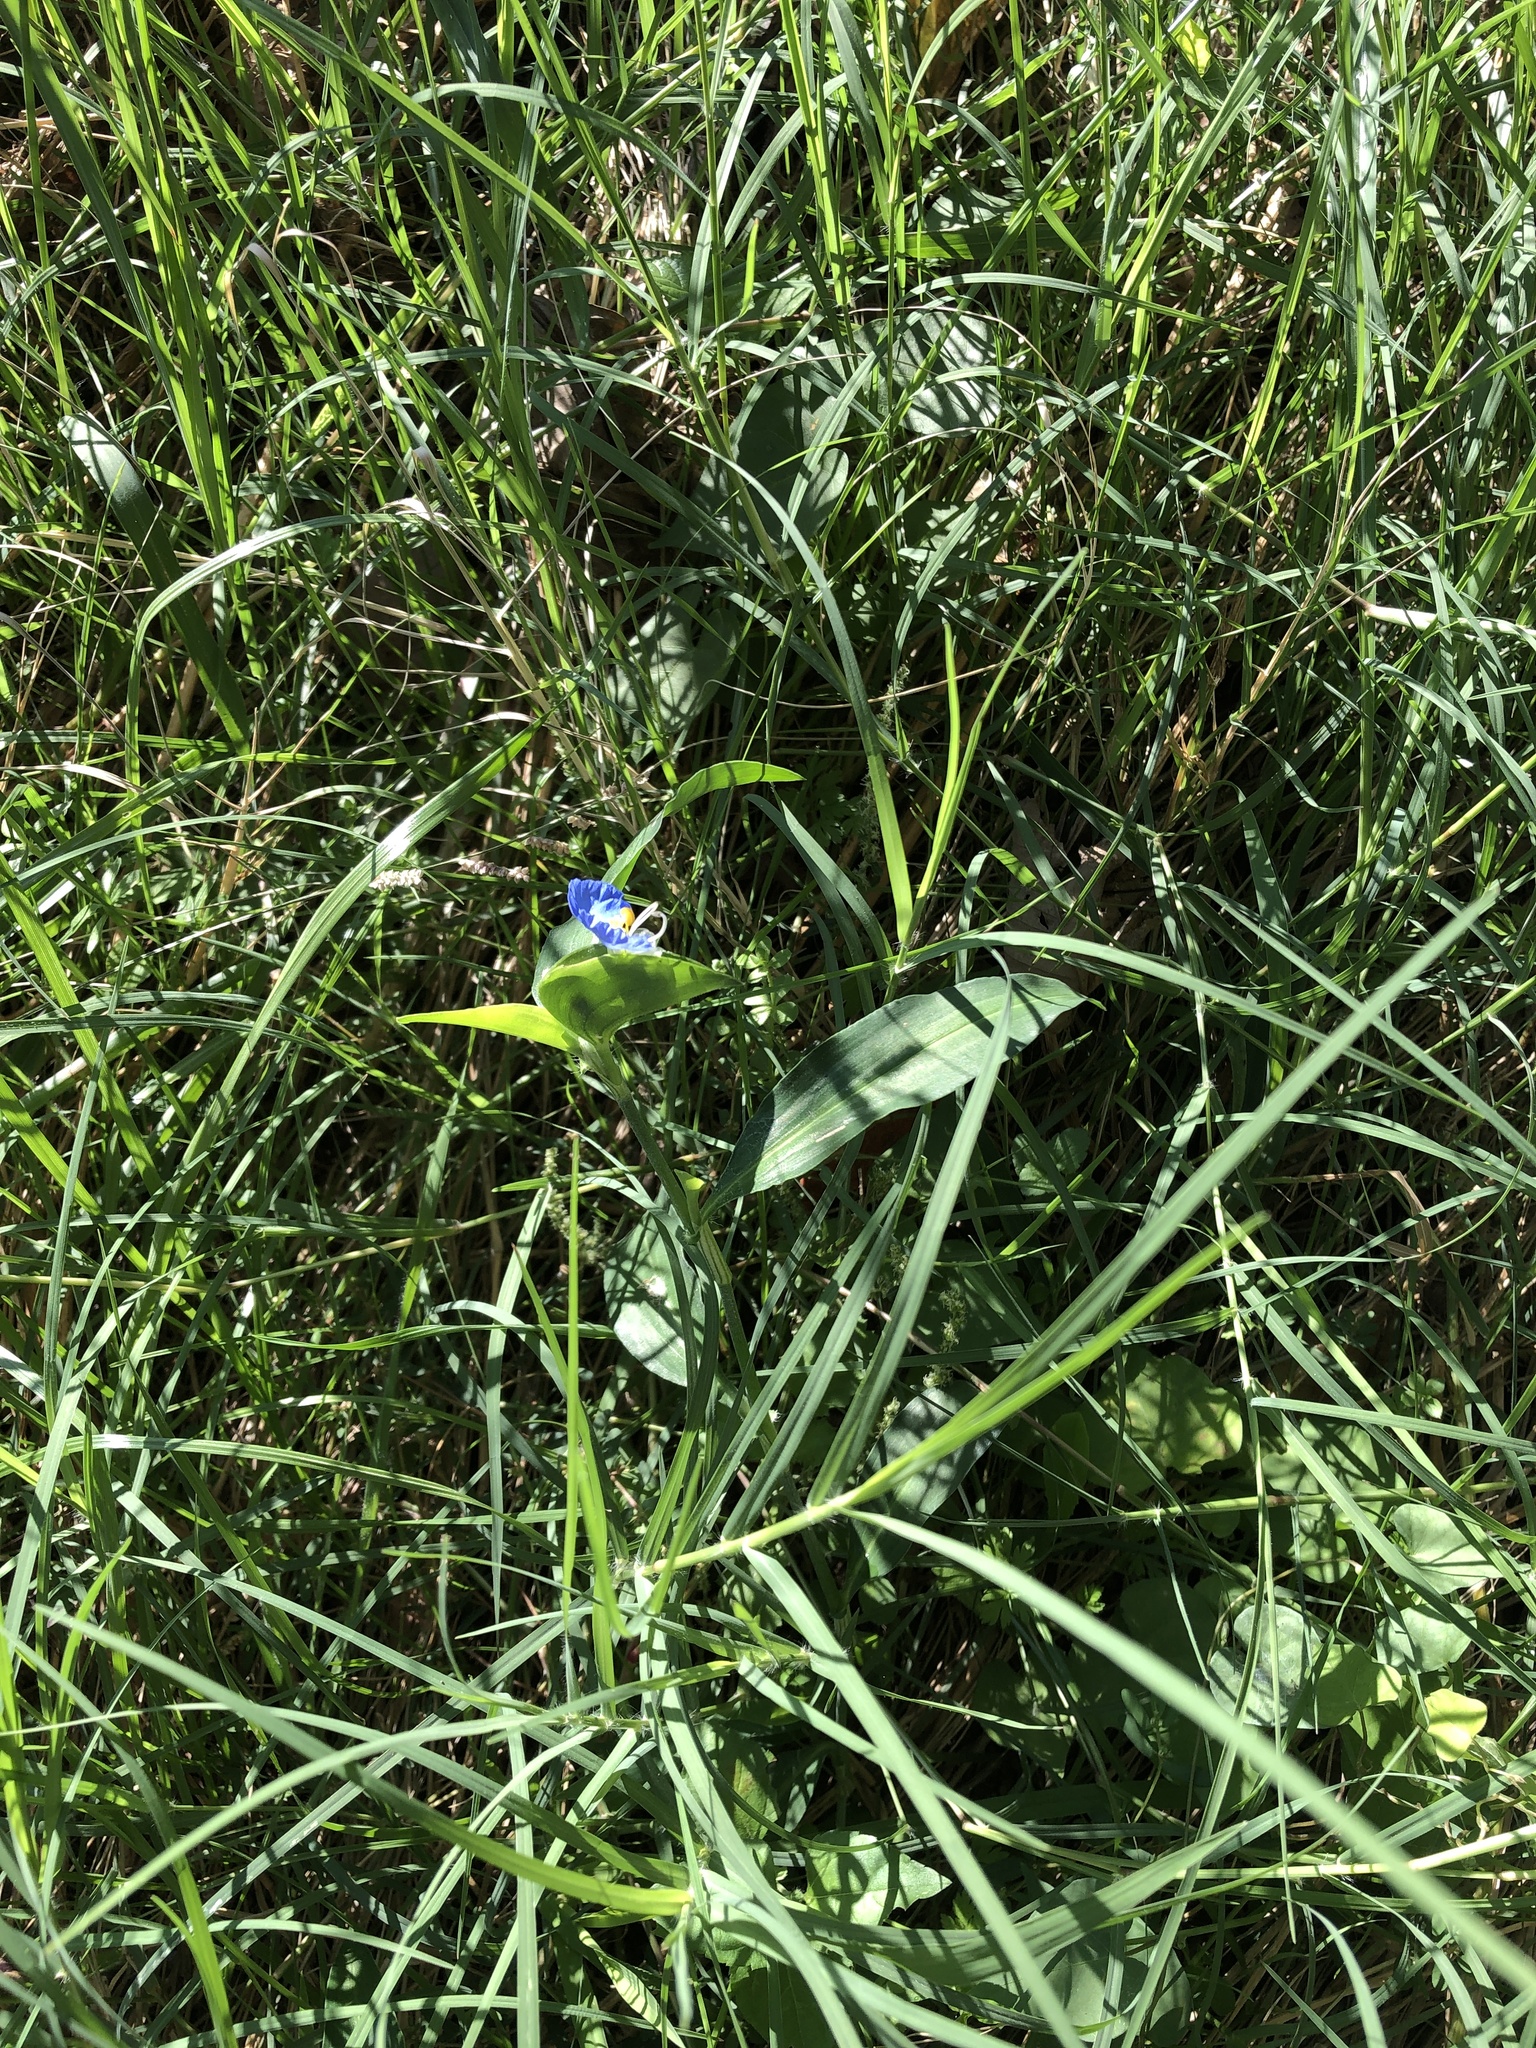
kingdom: Plantae
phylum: Tracheophyta
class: Liliopsida
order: Commelinales
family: Commelinaceae
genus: Commelina
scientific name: Commelina erecta
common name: Blousel blommetjie
